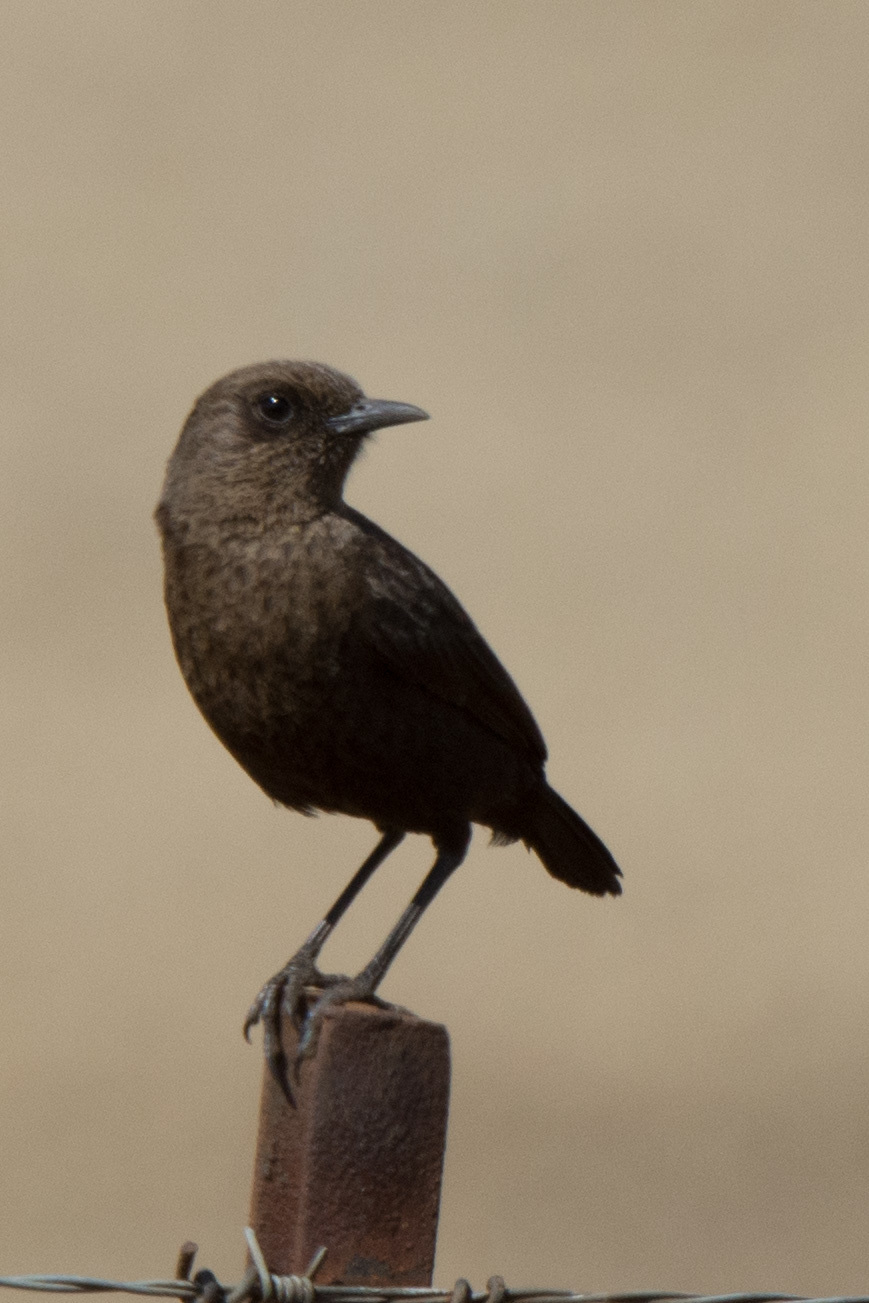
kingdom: Animalia
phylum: Chordata
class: Aves
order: Passeriformes
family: Muscicapidae
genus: Myrmecocichla
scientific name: Myrmecocichla formicivora
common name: Ant-eating chat
